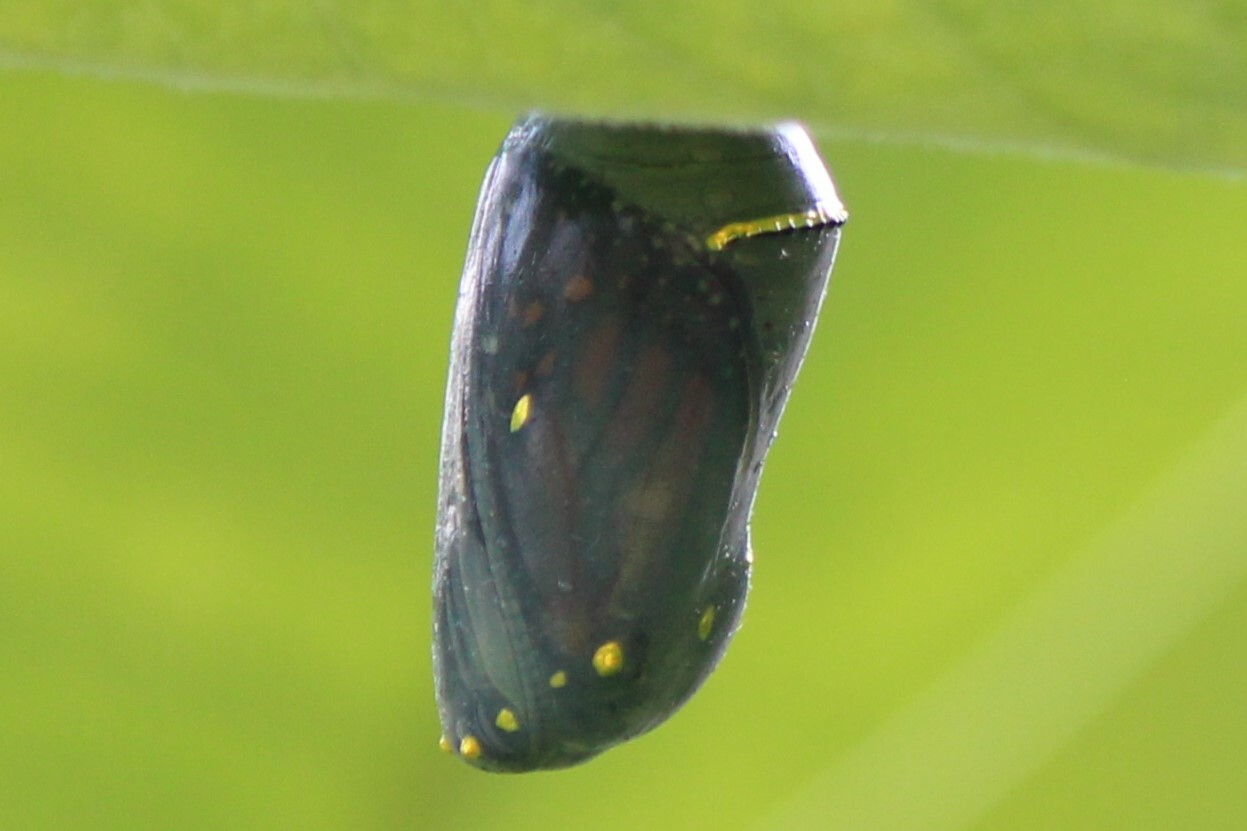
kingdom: Animalia
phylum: Arthropoda
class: Insecta
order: Lepidoptera
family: Nymphalidae
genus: Danaus
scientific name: Danaus plexippus
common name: Monarch
